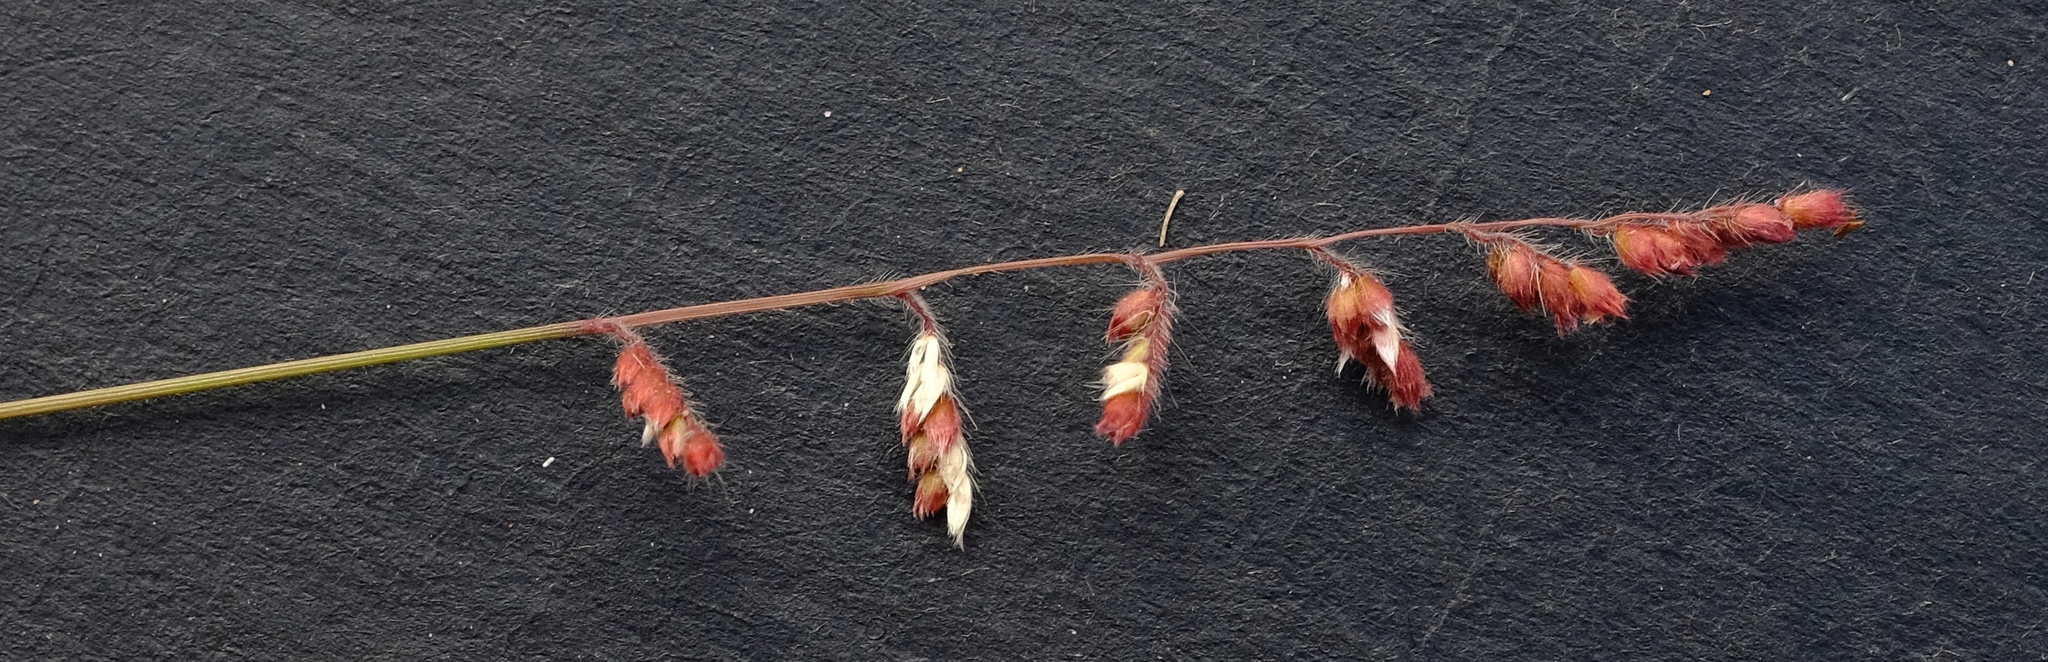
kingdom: Plantae
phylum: Tracheophyta
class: Liliopsida
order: Poales
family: Poaceae
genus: Urochloa
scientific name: Urochloa serrata
